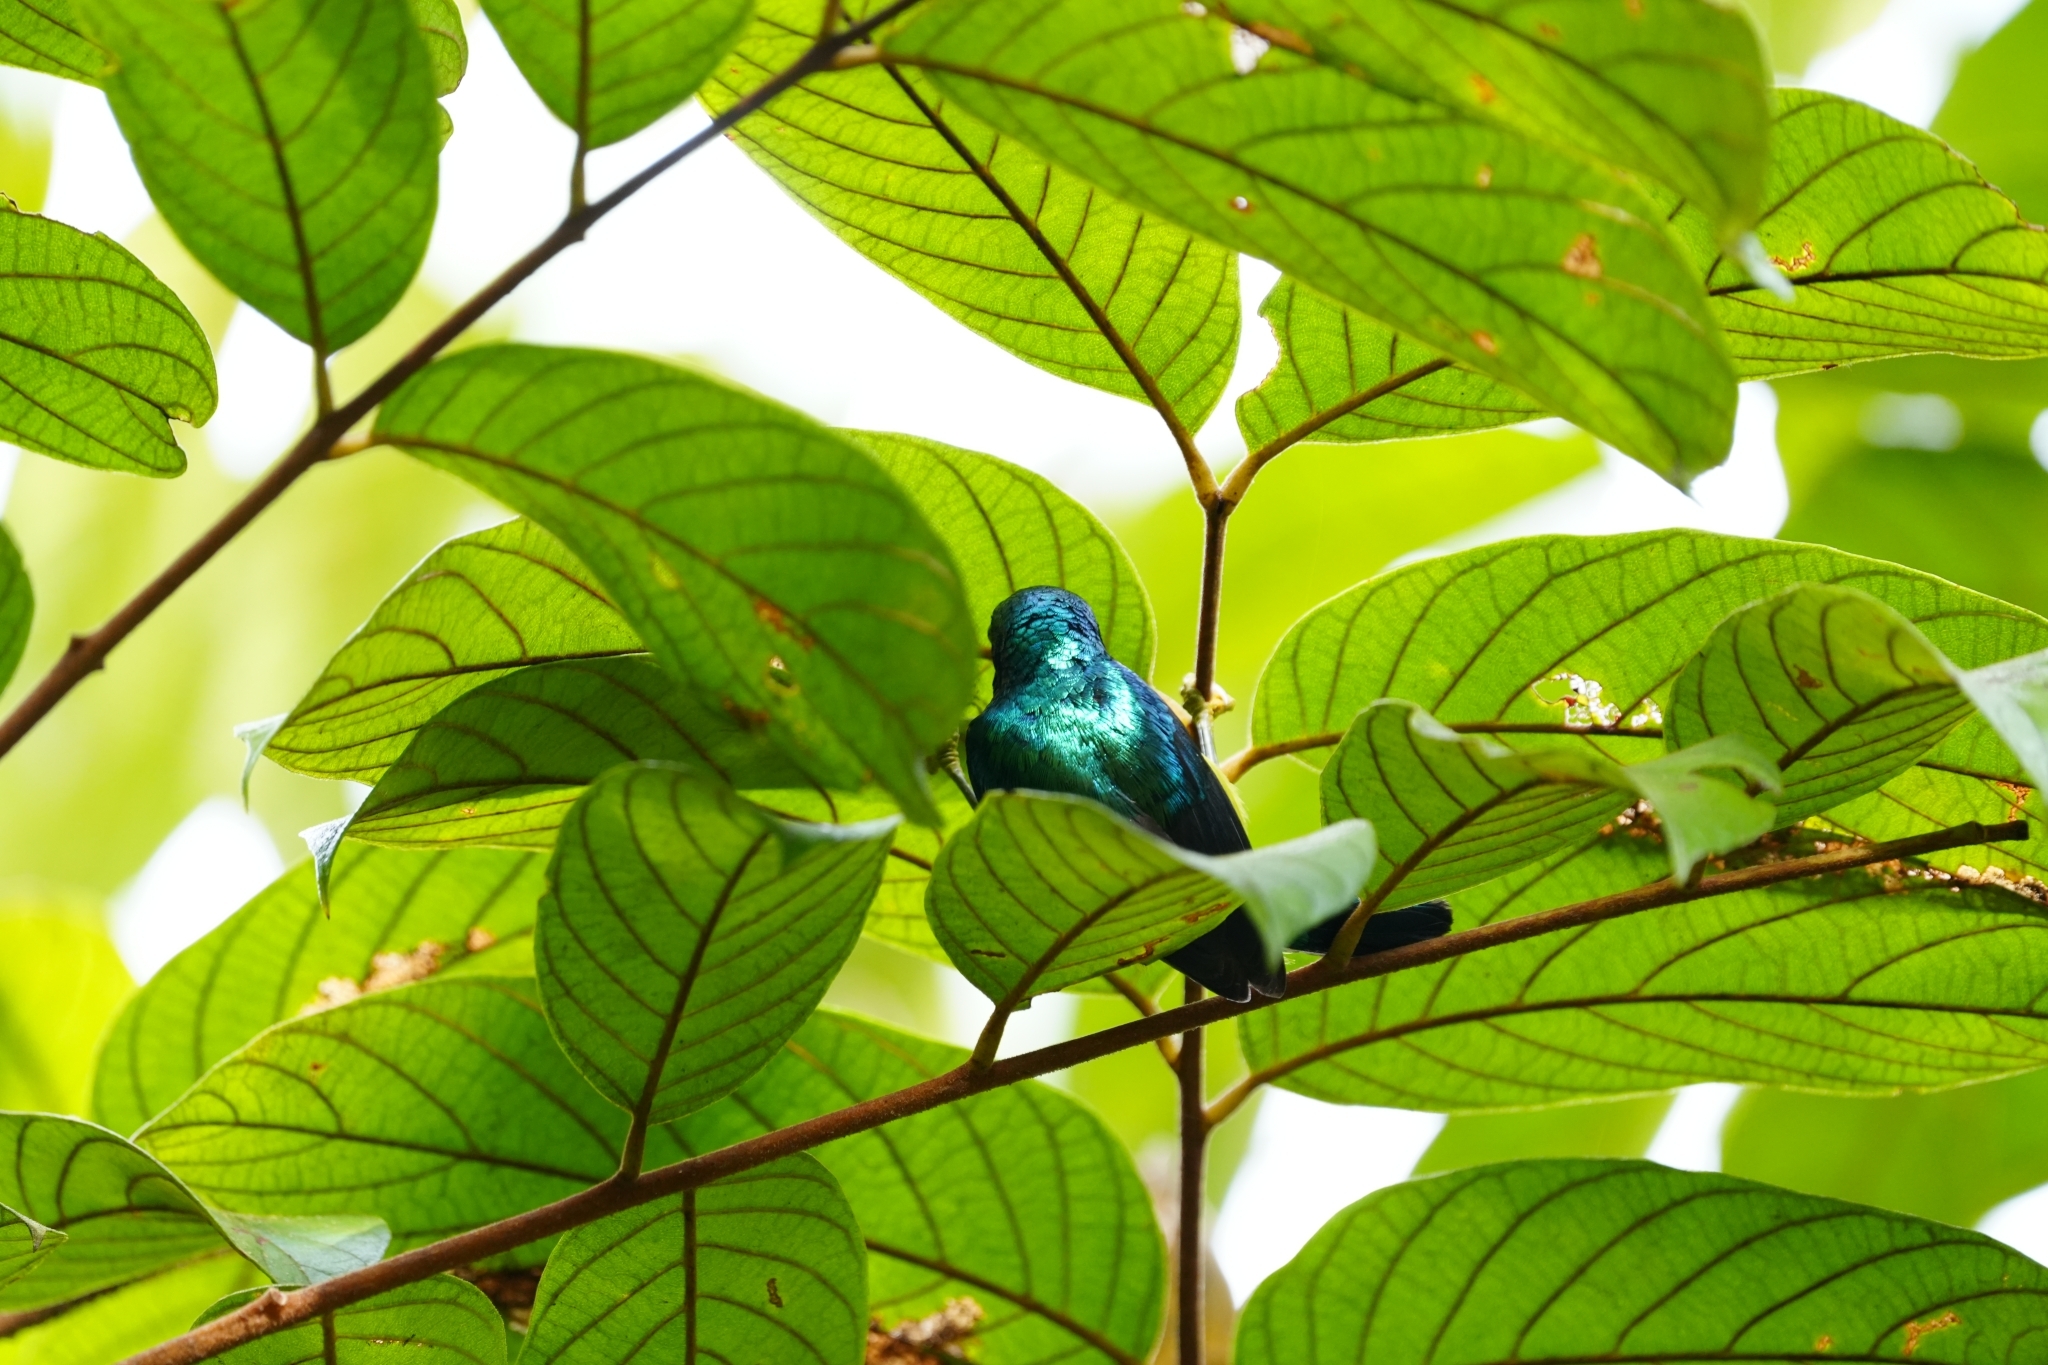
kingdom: Animalia
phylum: Chordata
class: Aves
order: Passeriformes
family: Nectariniidae
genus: Chalcoparia
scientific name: Chalcoparia singalensis
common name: Ruby-cheeked sunbird
